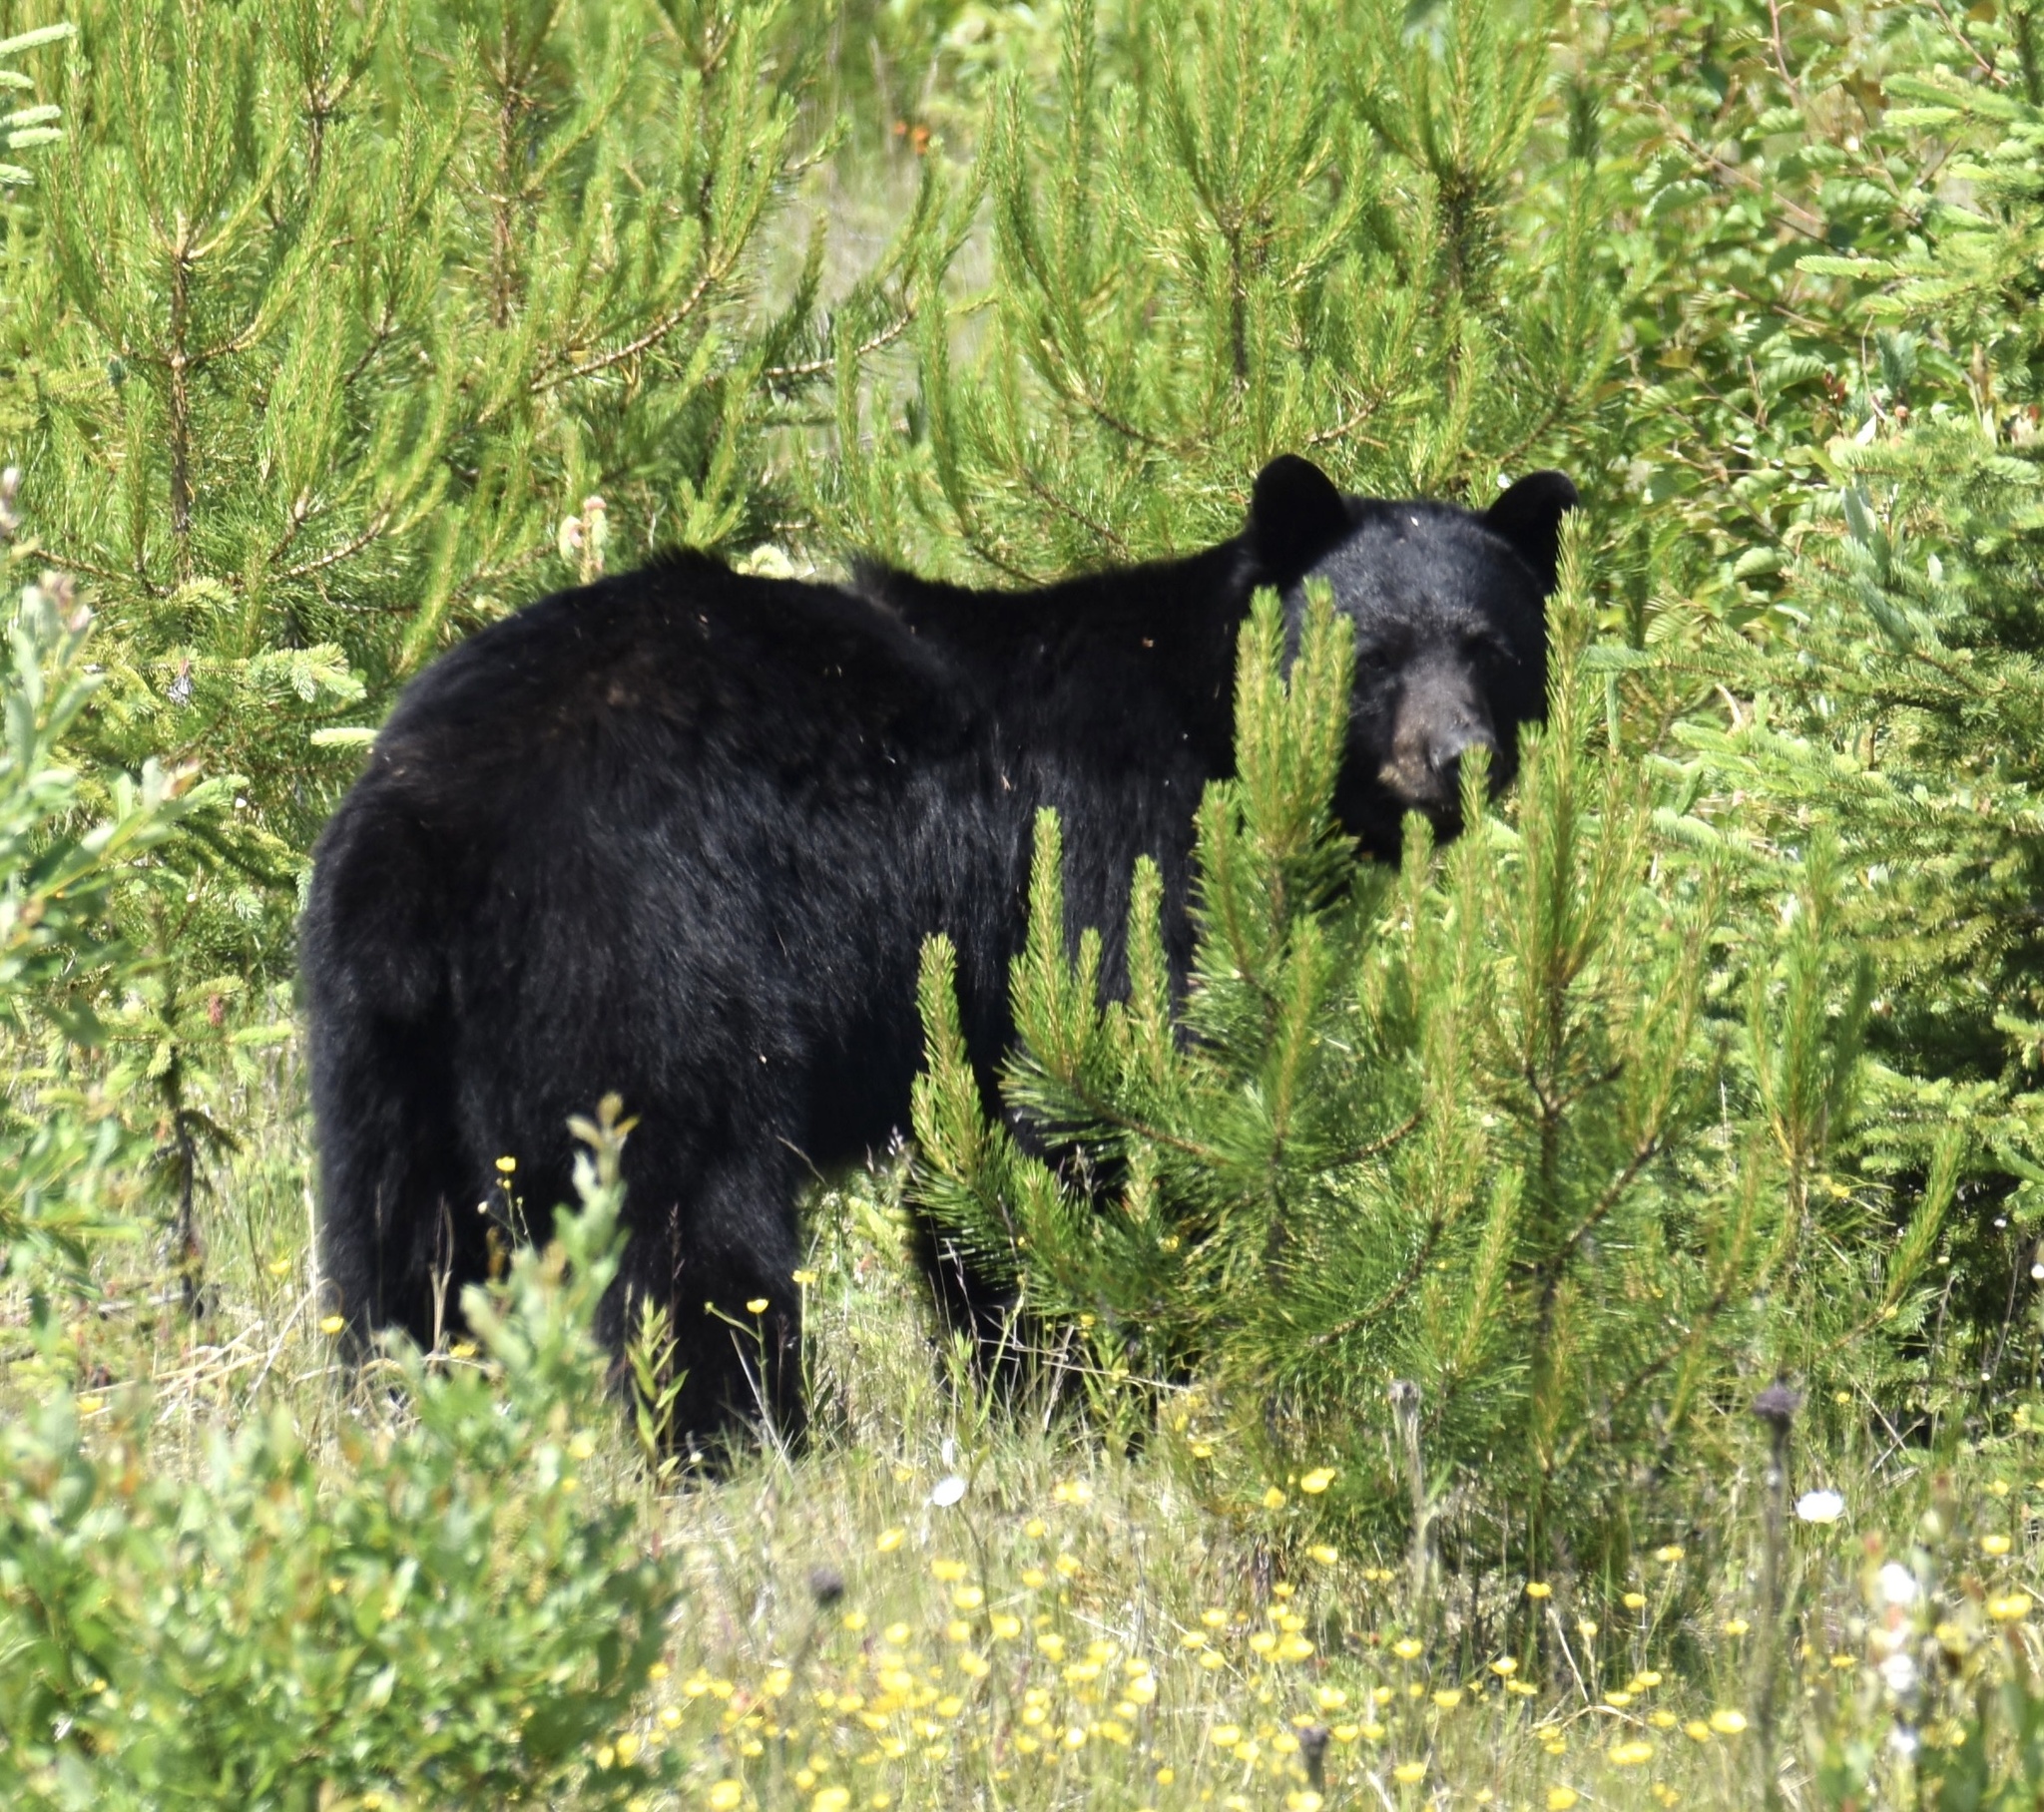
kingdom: Animalia
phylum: Chordata
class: Mammalia
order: Carnivora
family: Ursidae
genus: Ursus
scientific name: Ursus americanus
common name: American black bear
